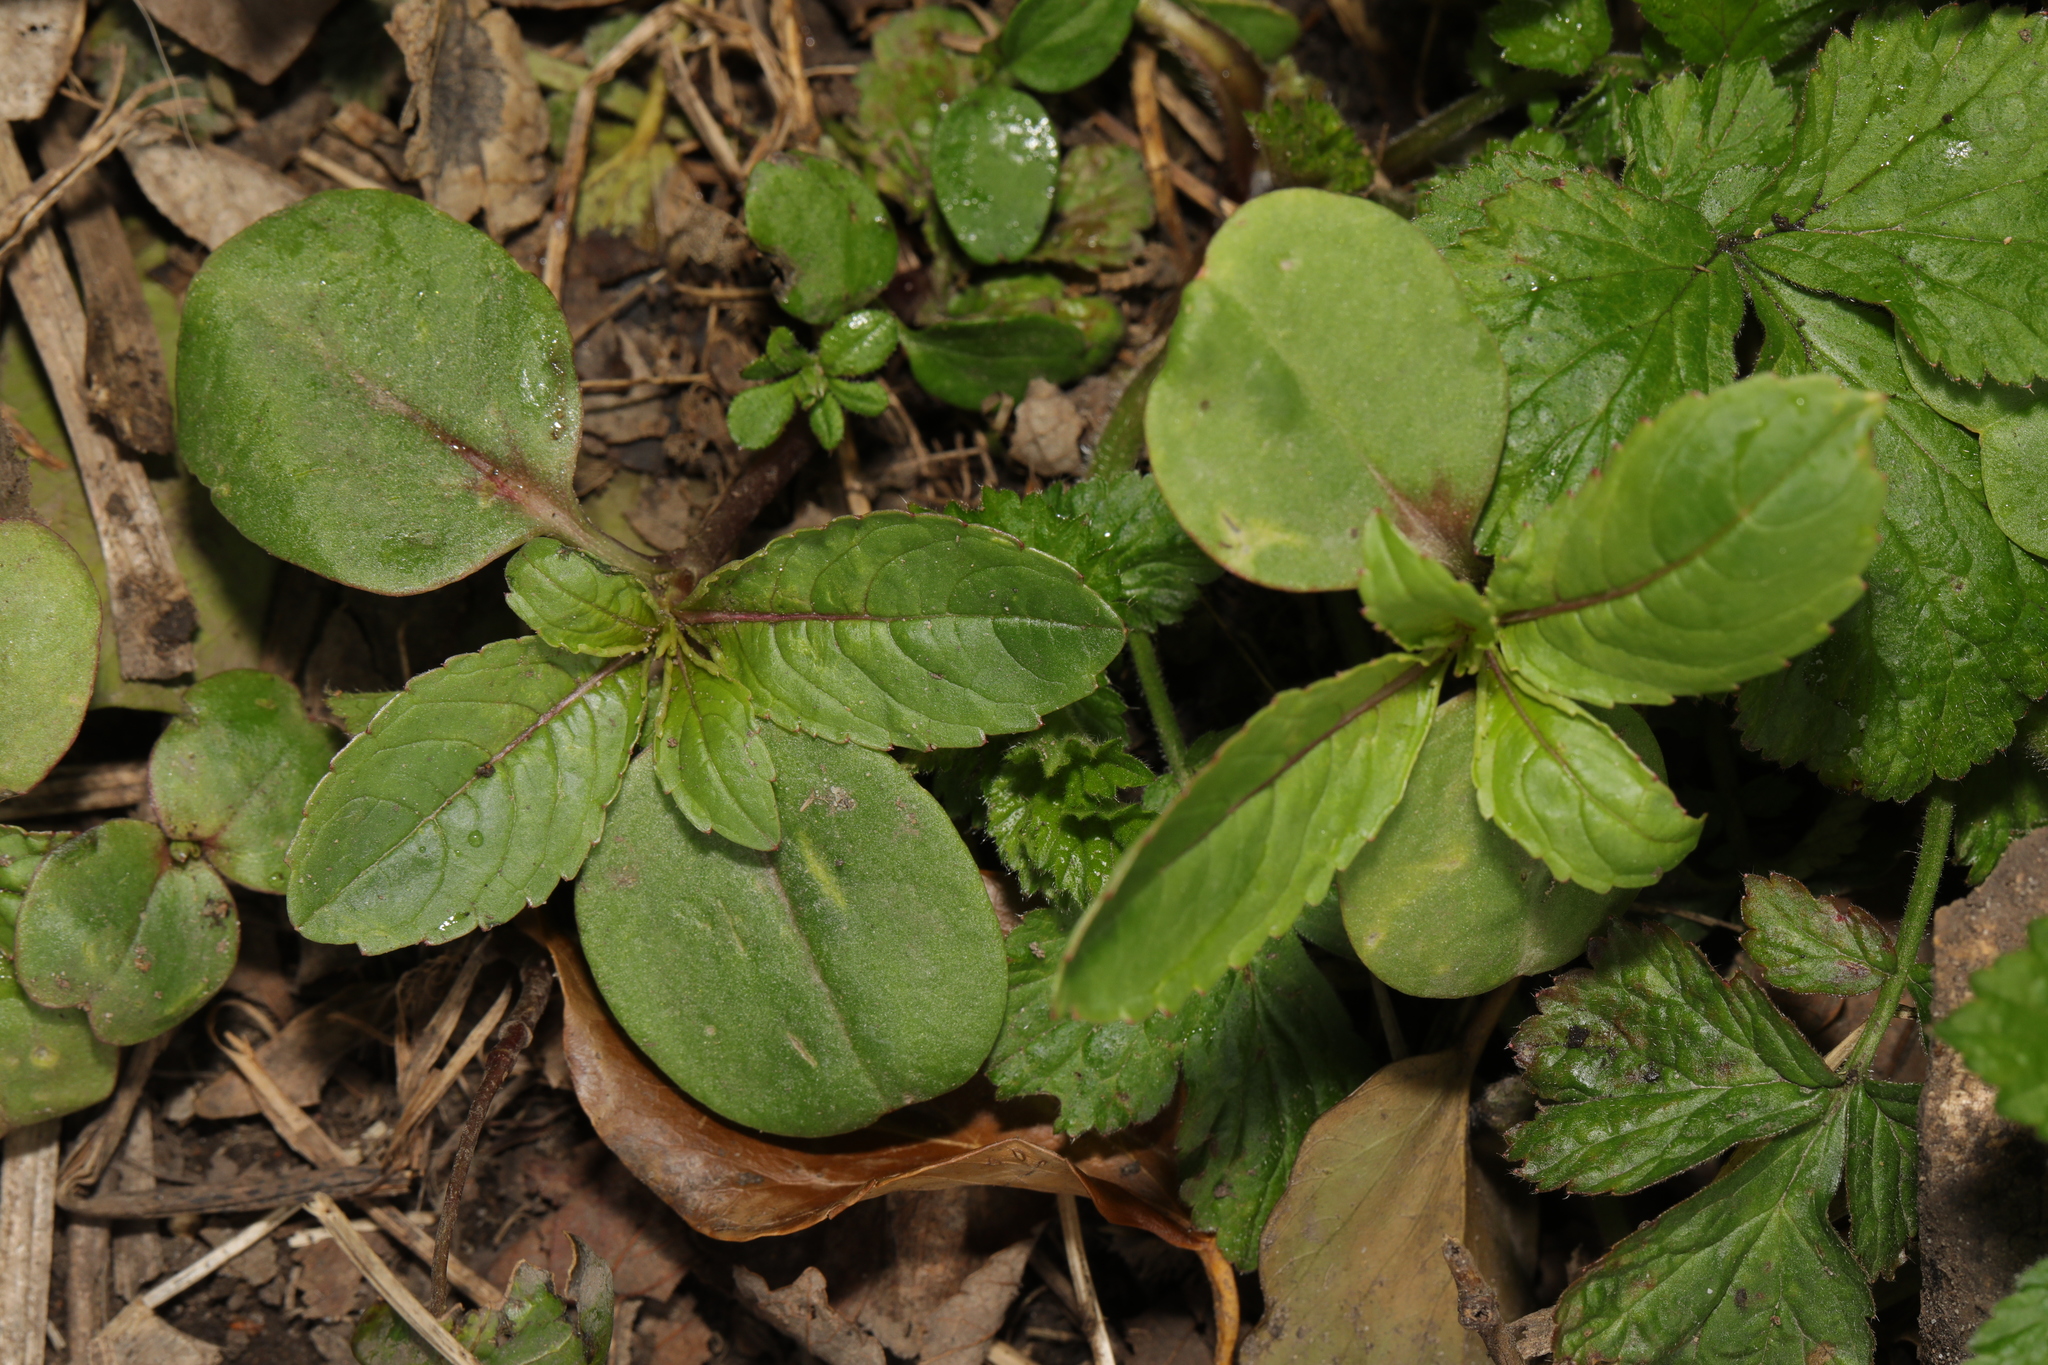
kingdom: Plantae
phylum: Tracheophyta
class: Magnoliopsida
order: Ericales
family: Balsaminaceae
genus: Impatiens
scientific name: Impatiens glandulifera
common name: Himalayan balsam
